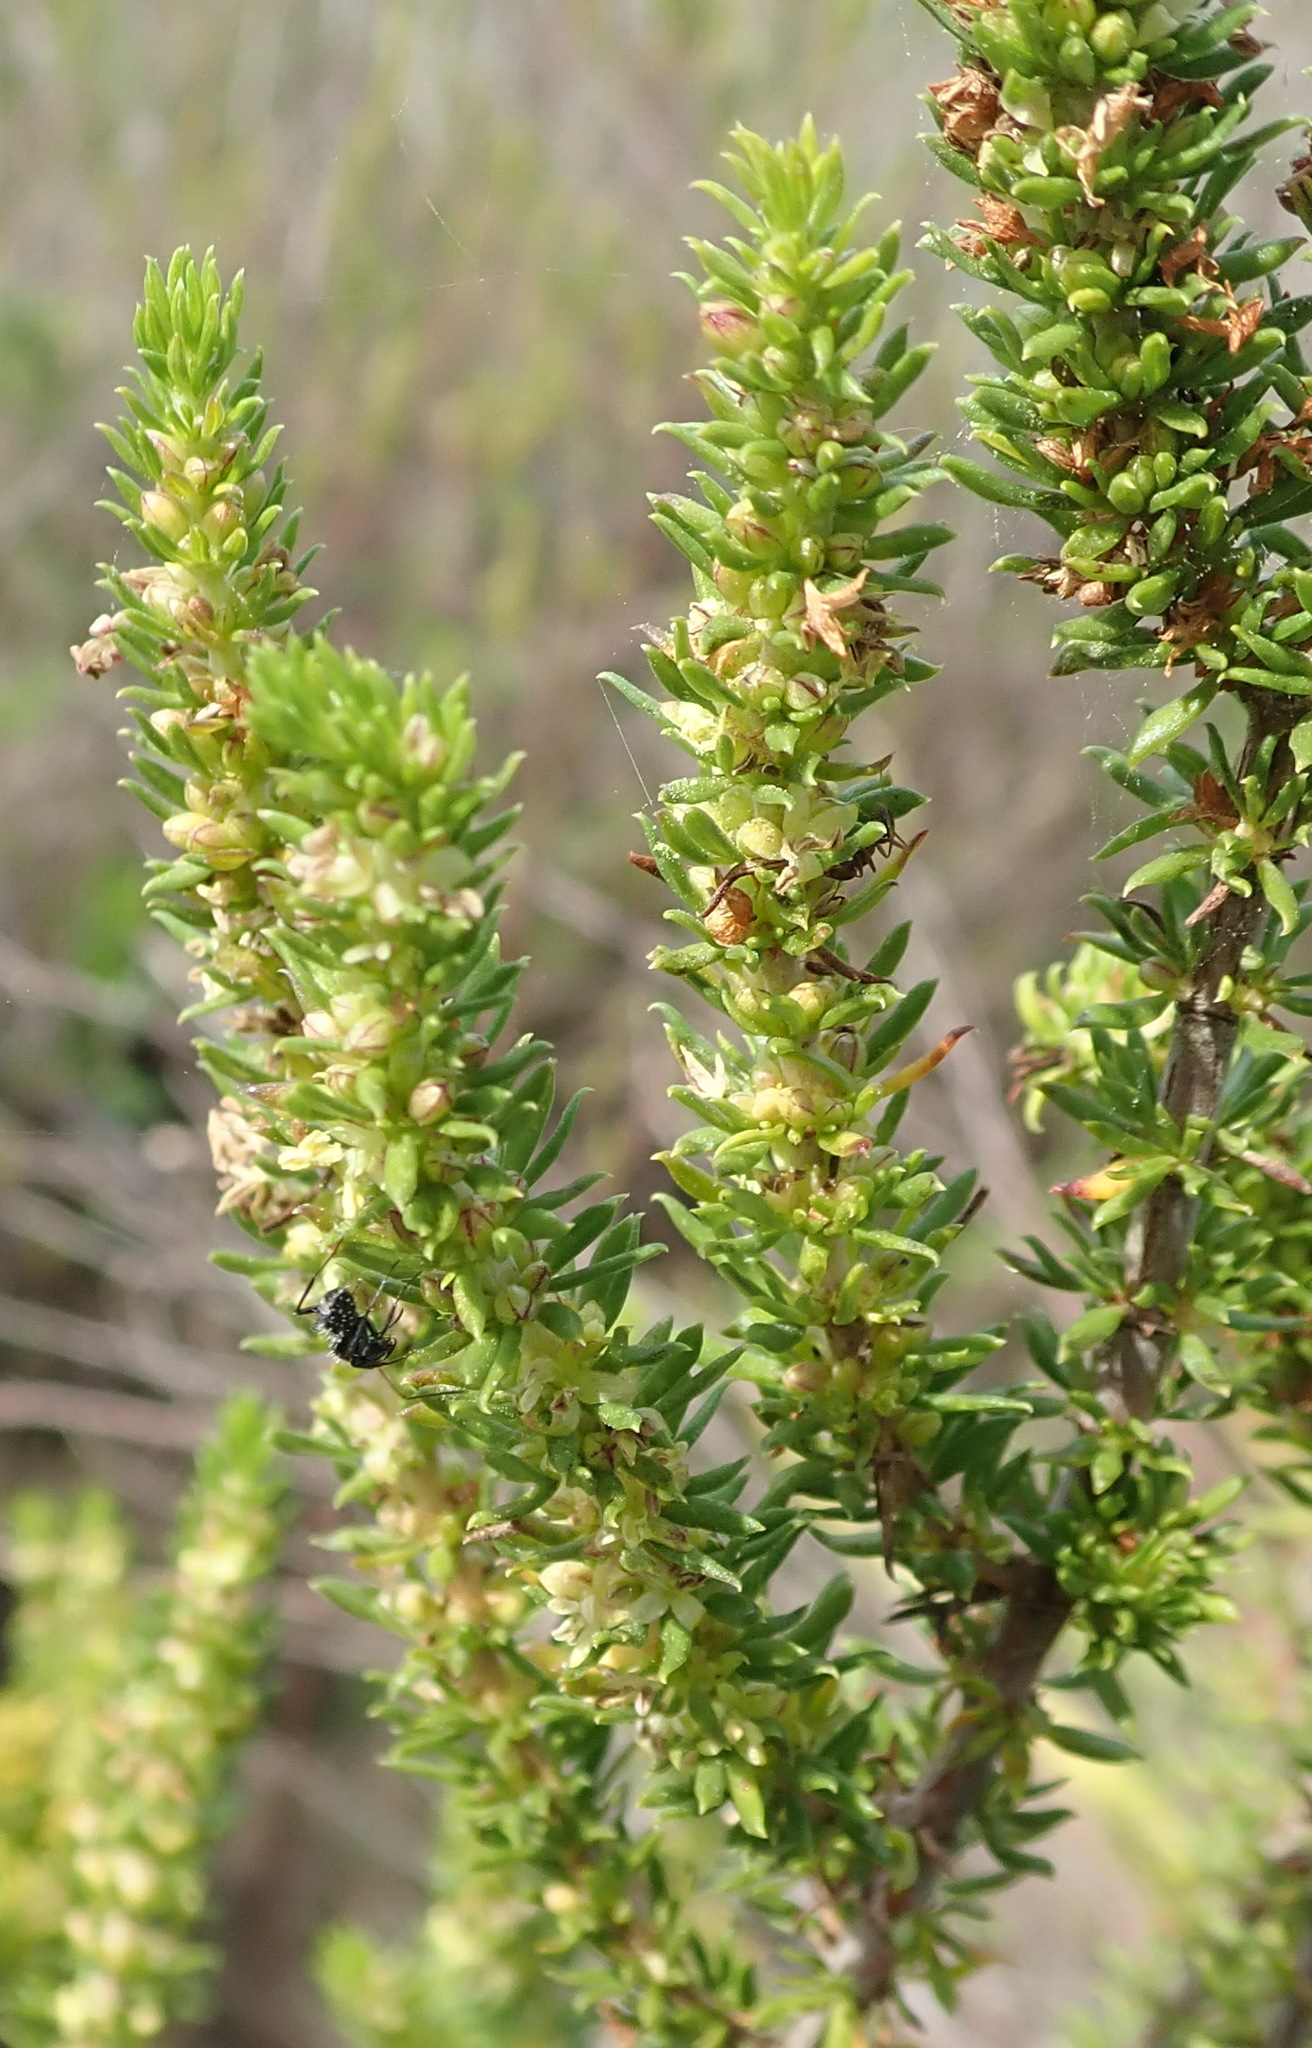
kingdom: Plantae
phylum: Tracheophyta
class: Magnoliopsida
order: Gentianales
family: Rubiaceae
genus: Anthospermum
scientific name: Anthospermum aethiopicum
